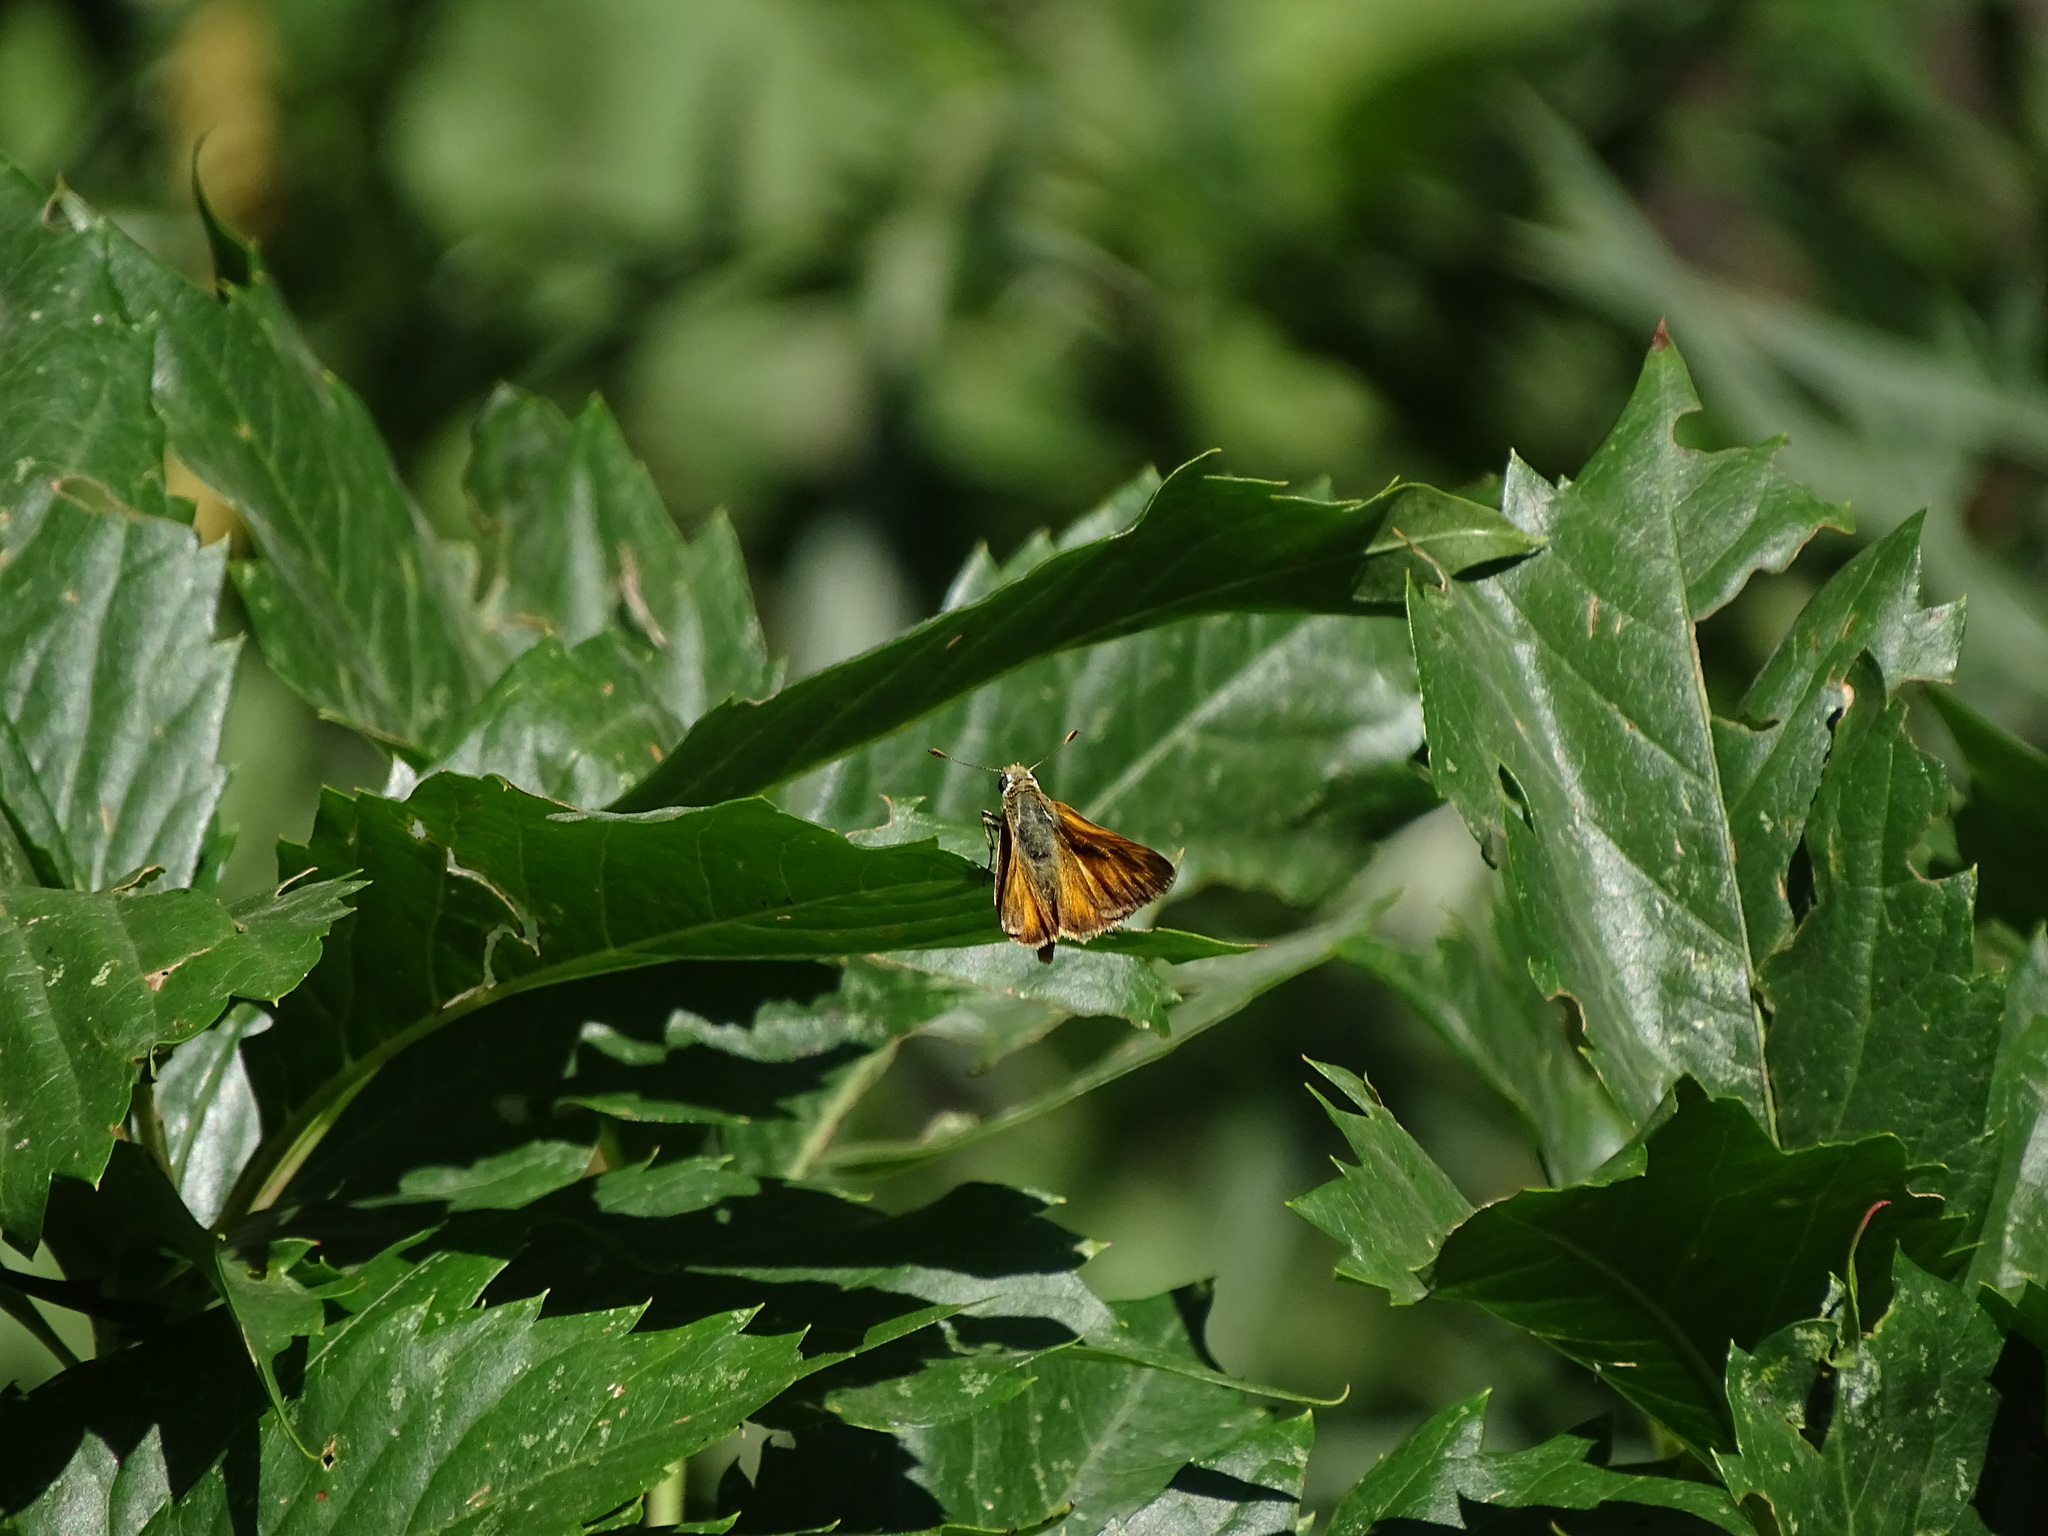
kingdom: Animalia
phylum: Arthropoda
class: Insecta
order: Lepidoptera
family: Hesperiidae
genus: Ochlodes
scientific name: Ochlodes sylvanoides
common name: Woodland skipper
